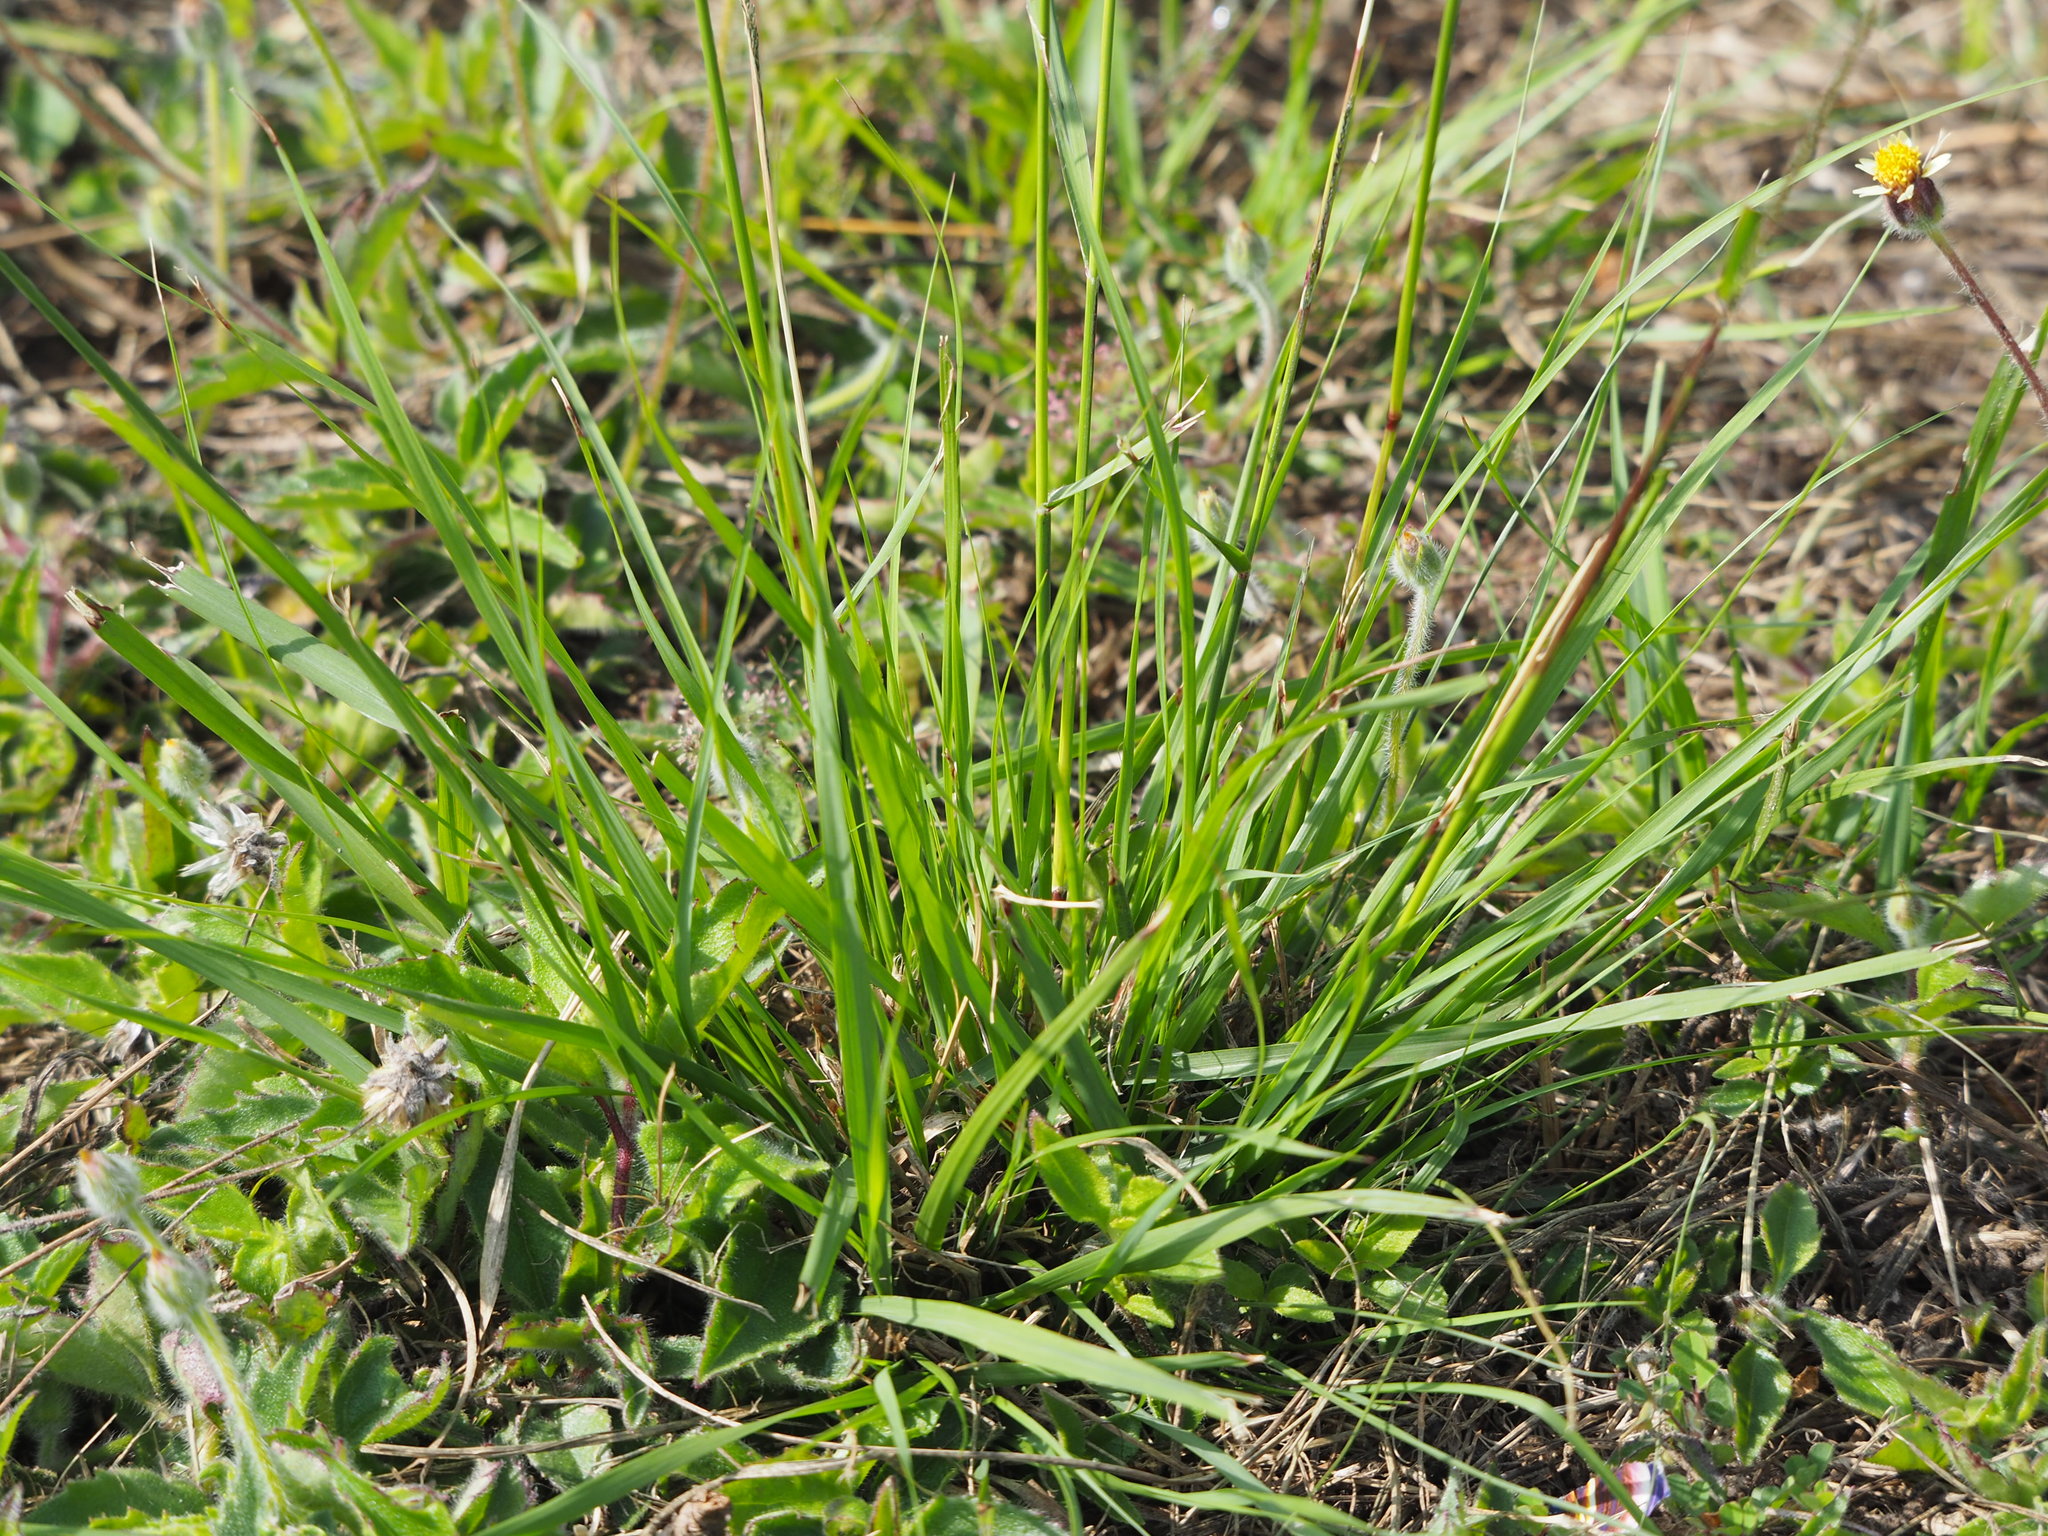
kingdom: Plantae
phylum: Tracheophyta
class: Liliopsida
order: Poales
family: Poaceae
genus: Sporobolus
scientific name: Sporobolus indicus
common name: Smut grass
